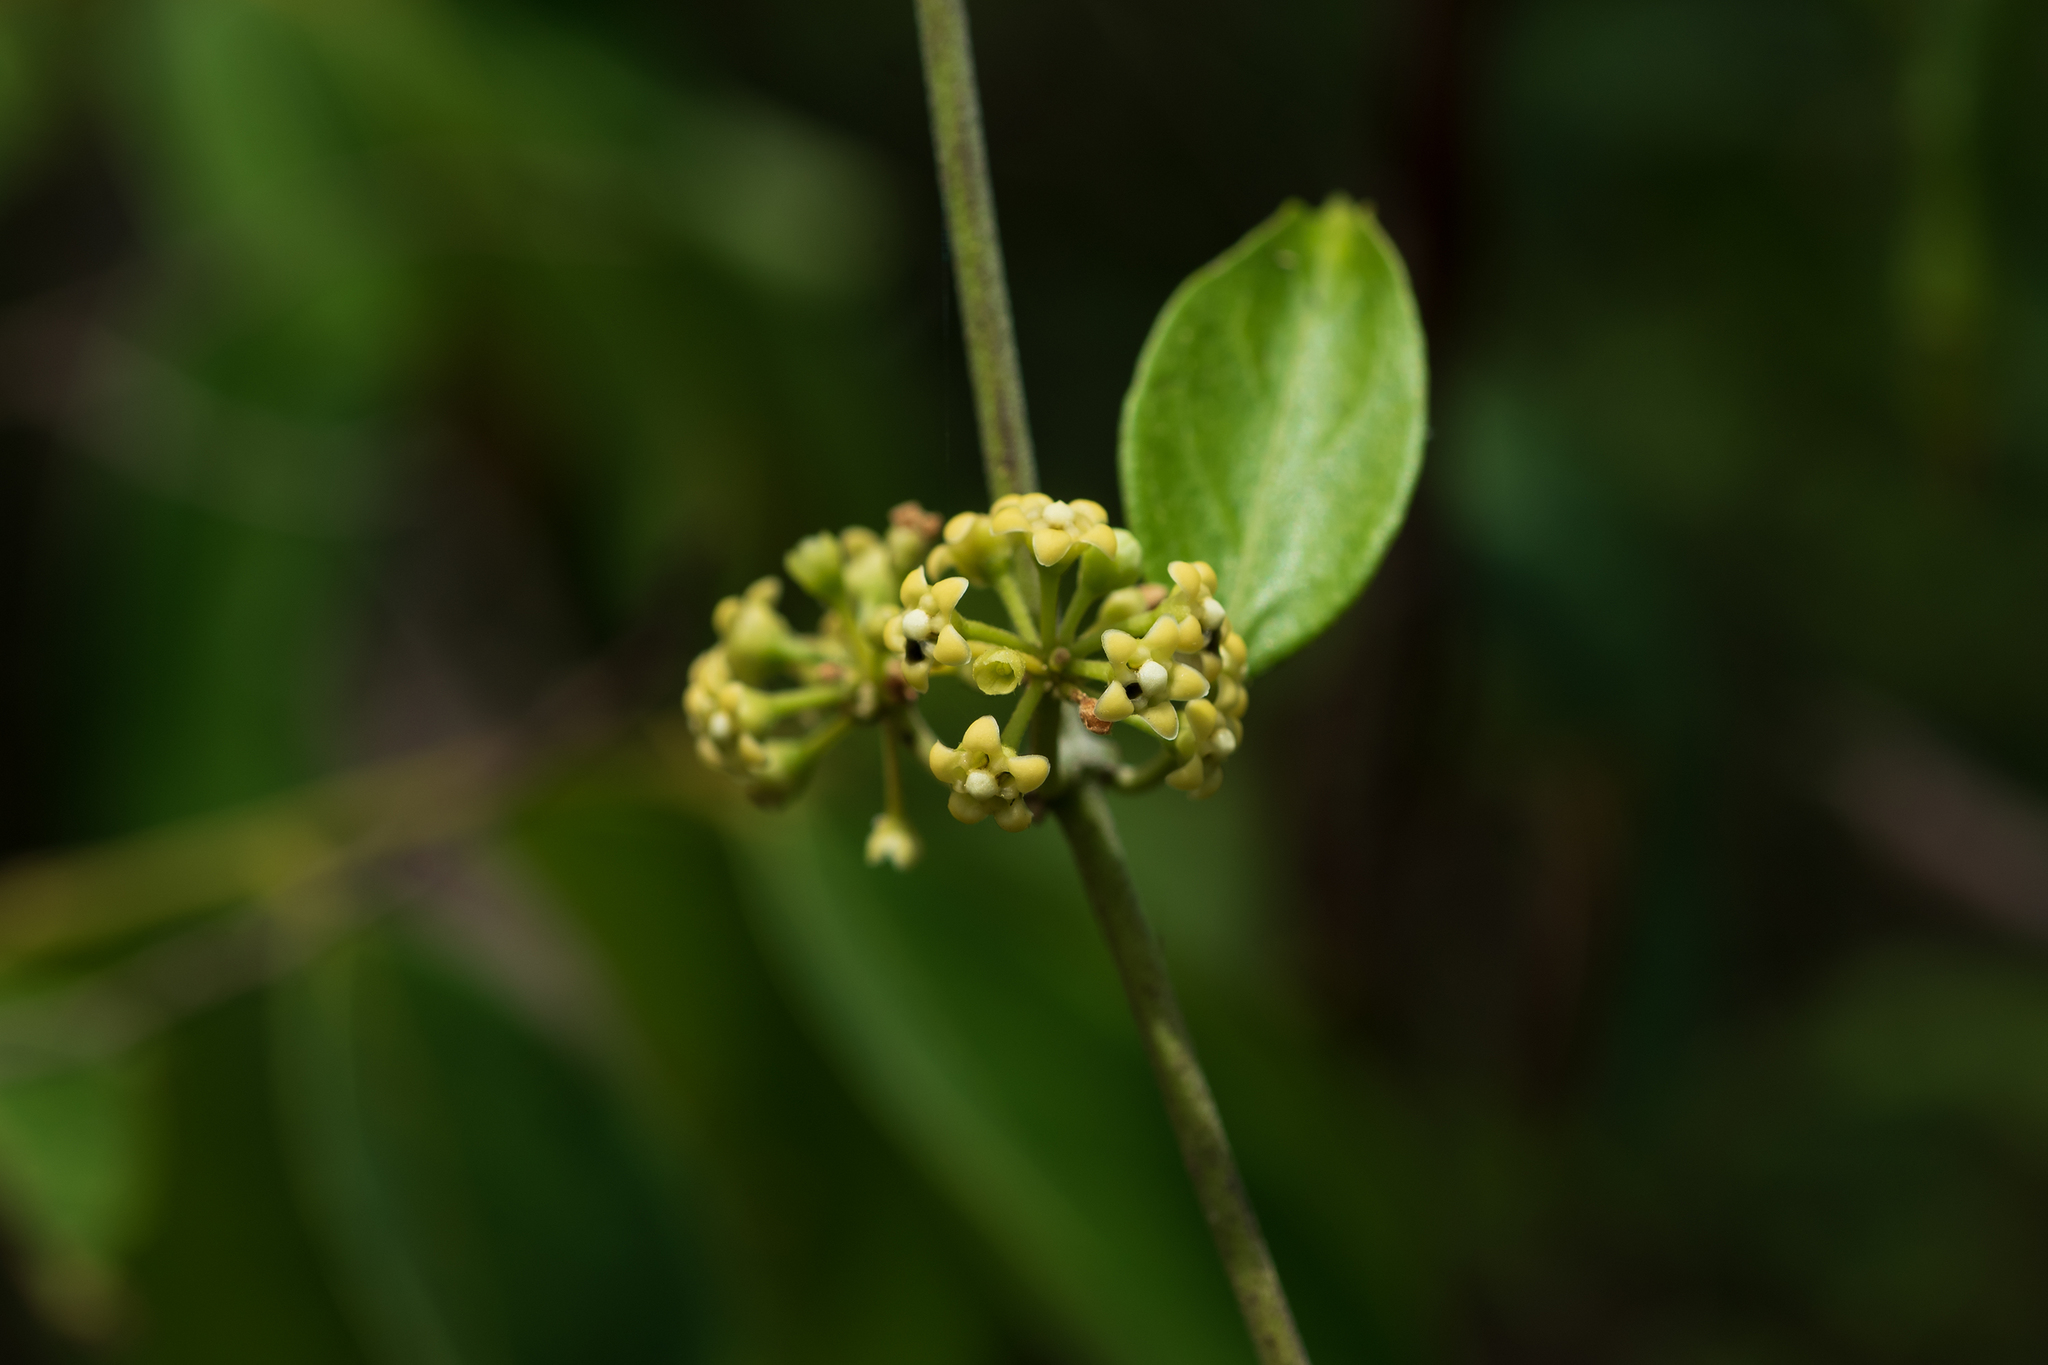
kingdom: Plantae
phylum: Tracheophyta
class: Magnoliopsida
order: Gentianales
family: Apocynaceae
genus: Gymnema
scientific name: Gymnema sylvestre
